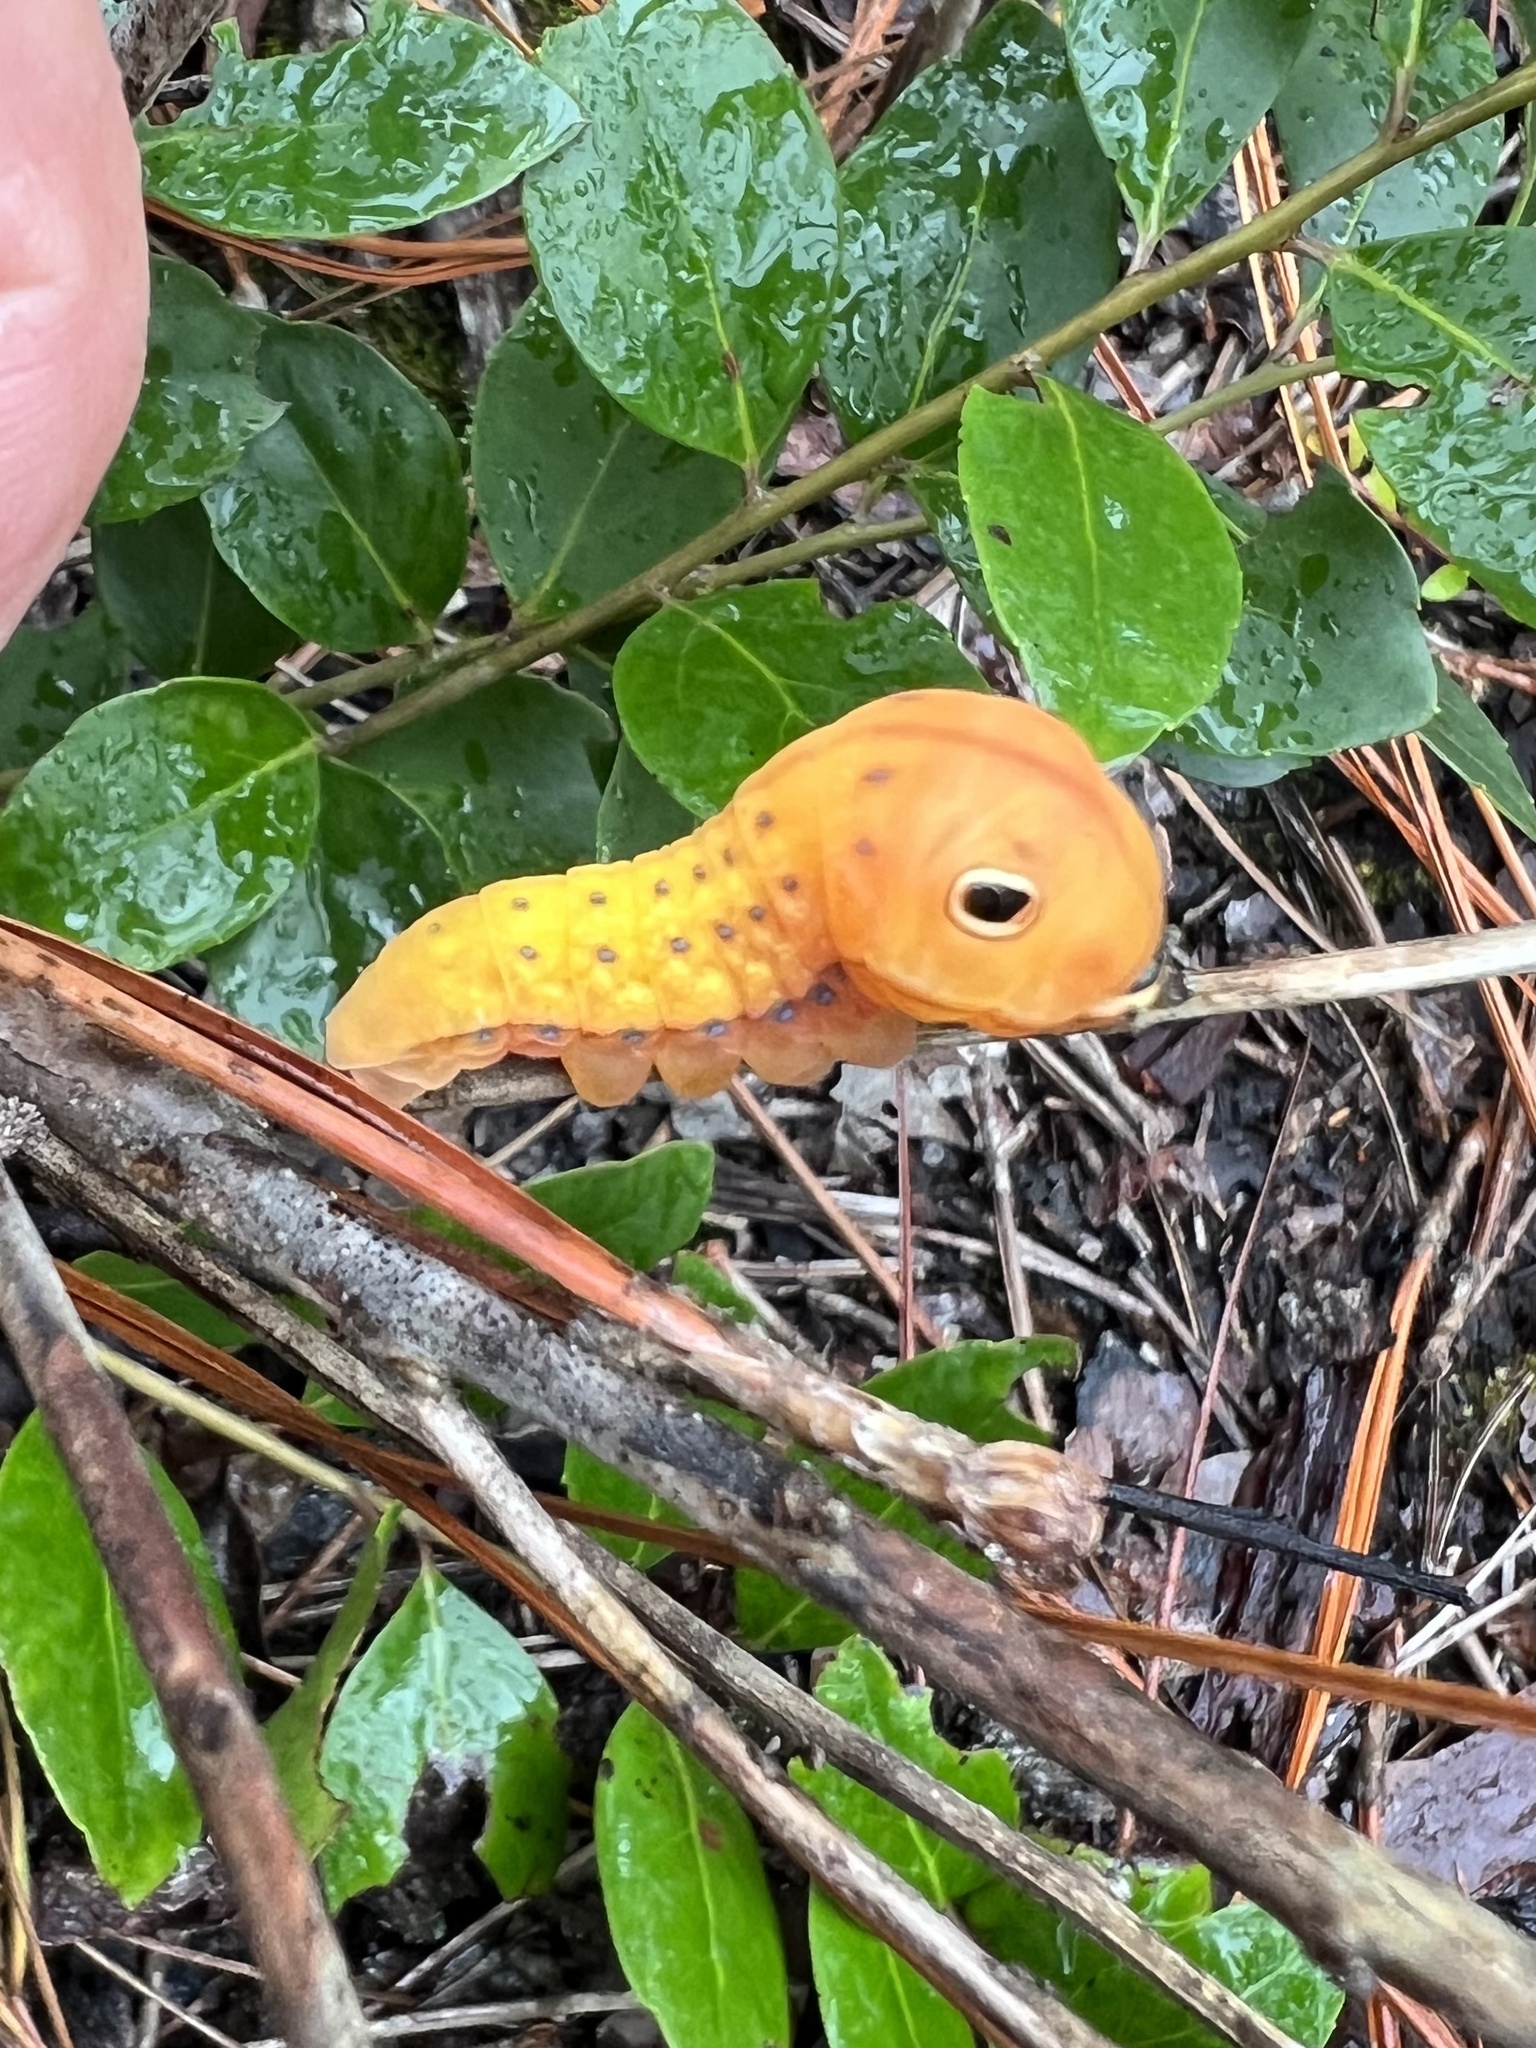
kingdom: Animalia
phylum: Arthropoda
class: Insecta
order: Lepidoptera
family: Papilionidae
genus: Papilio
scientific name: Papilio palamedes
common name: Palamedes swallowtail
